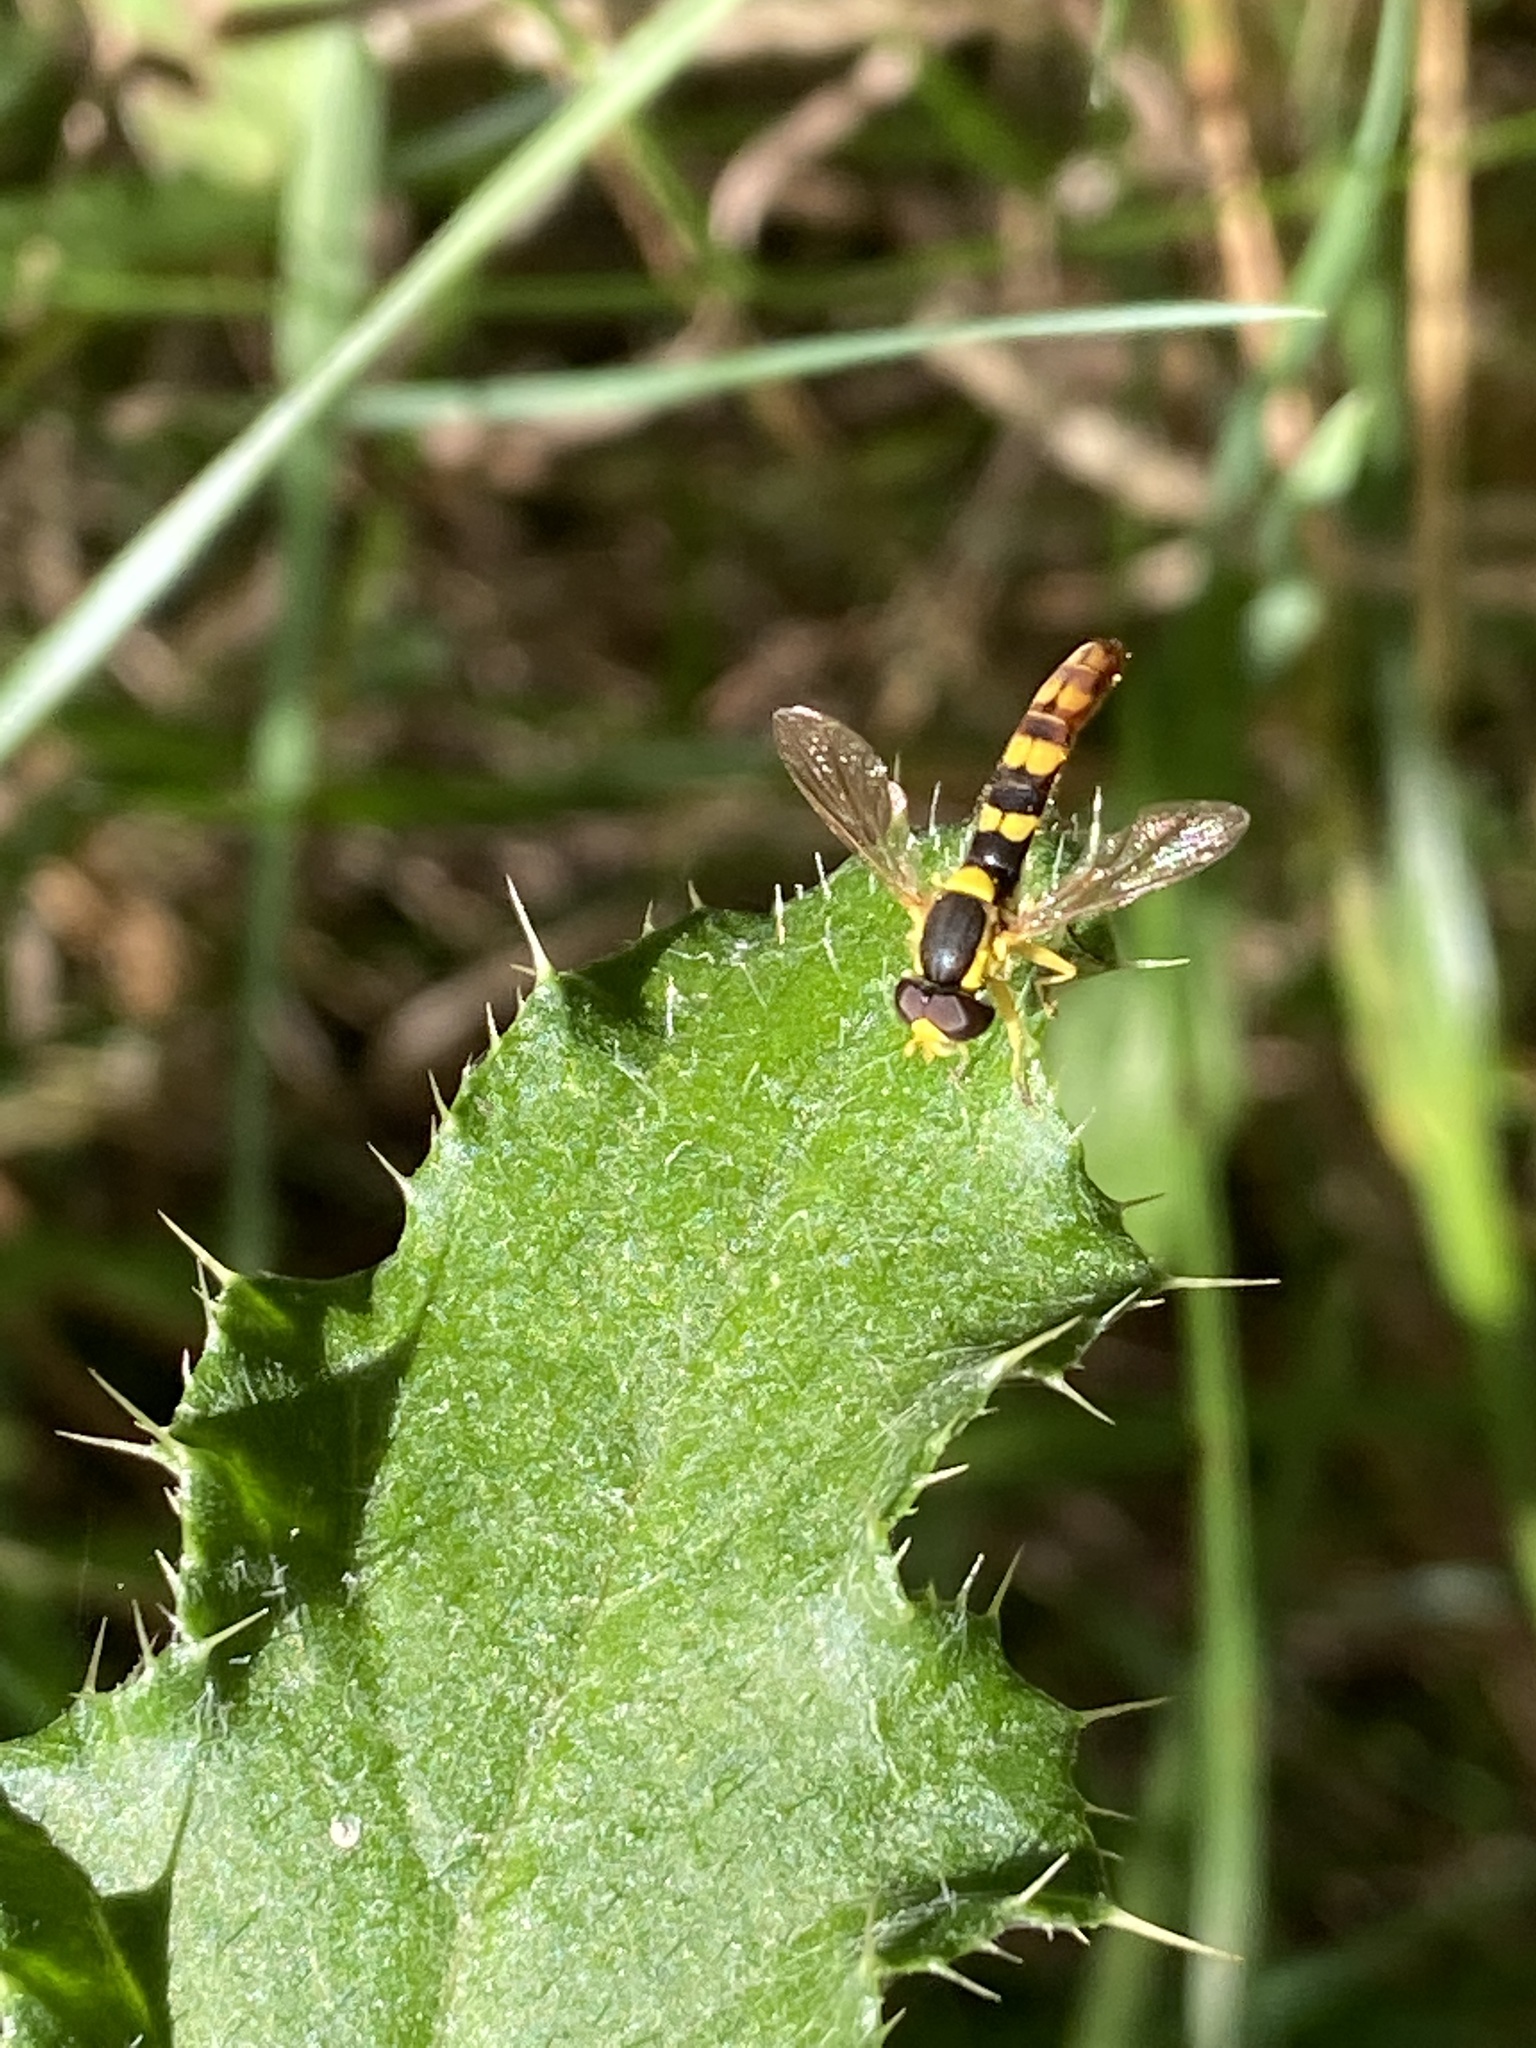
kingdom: Animalia
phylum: Arthropoda
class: Insecta
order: Diptera
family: Syrphidae
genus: Sphaerophoria
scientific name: Sphaerophoria scripta
